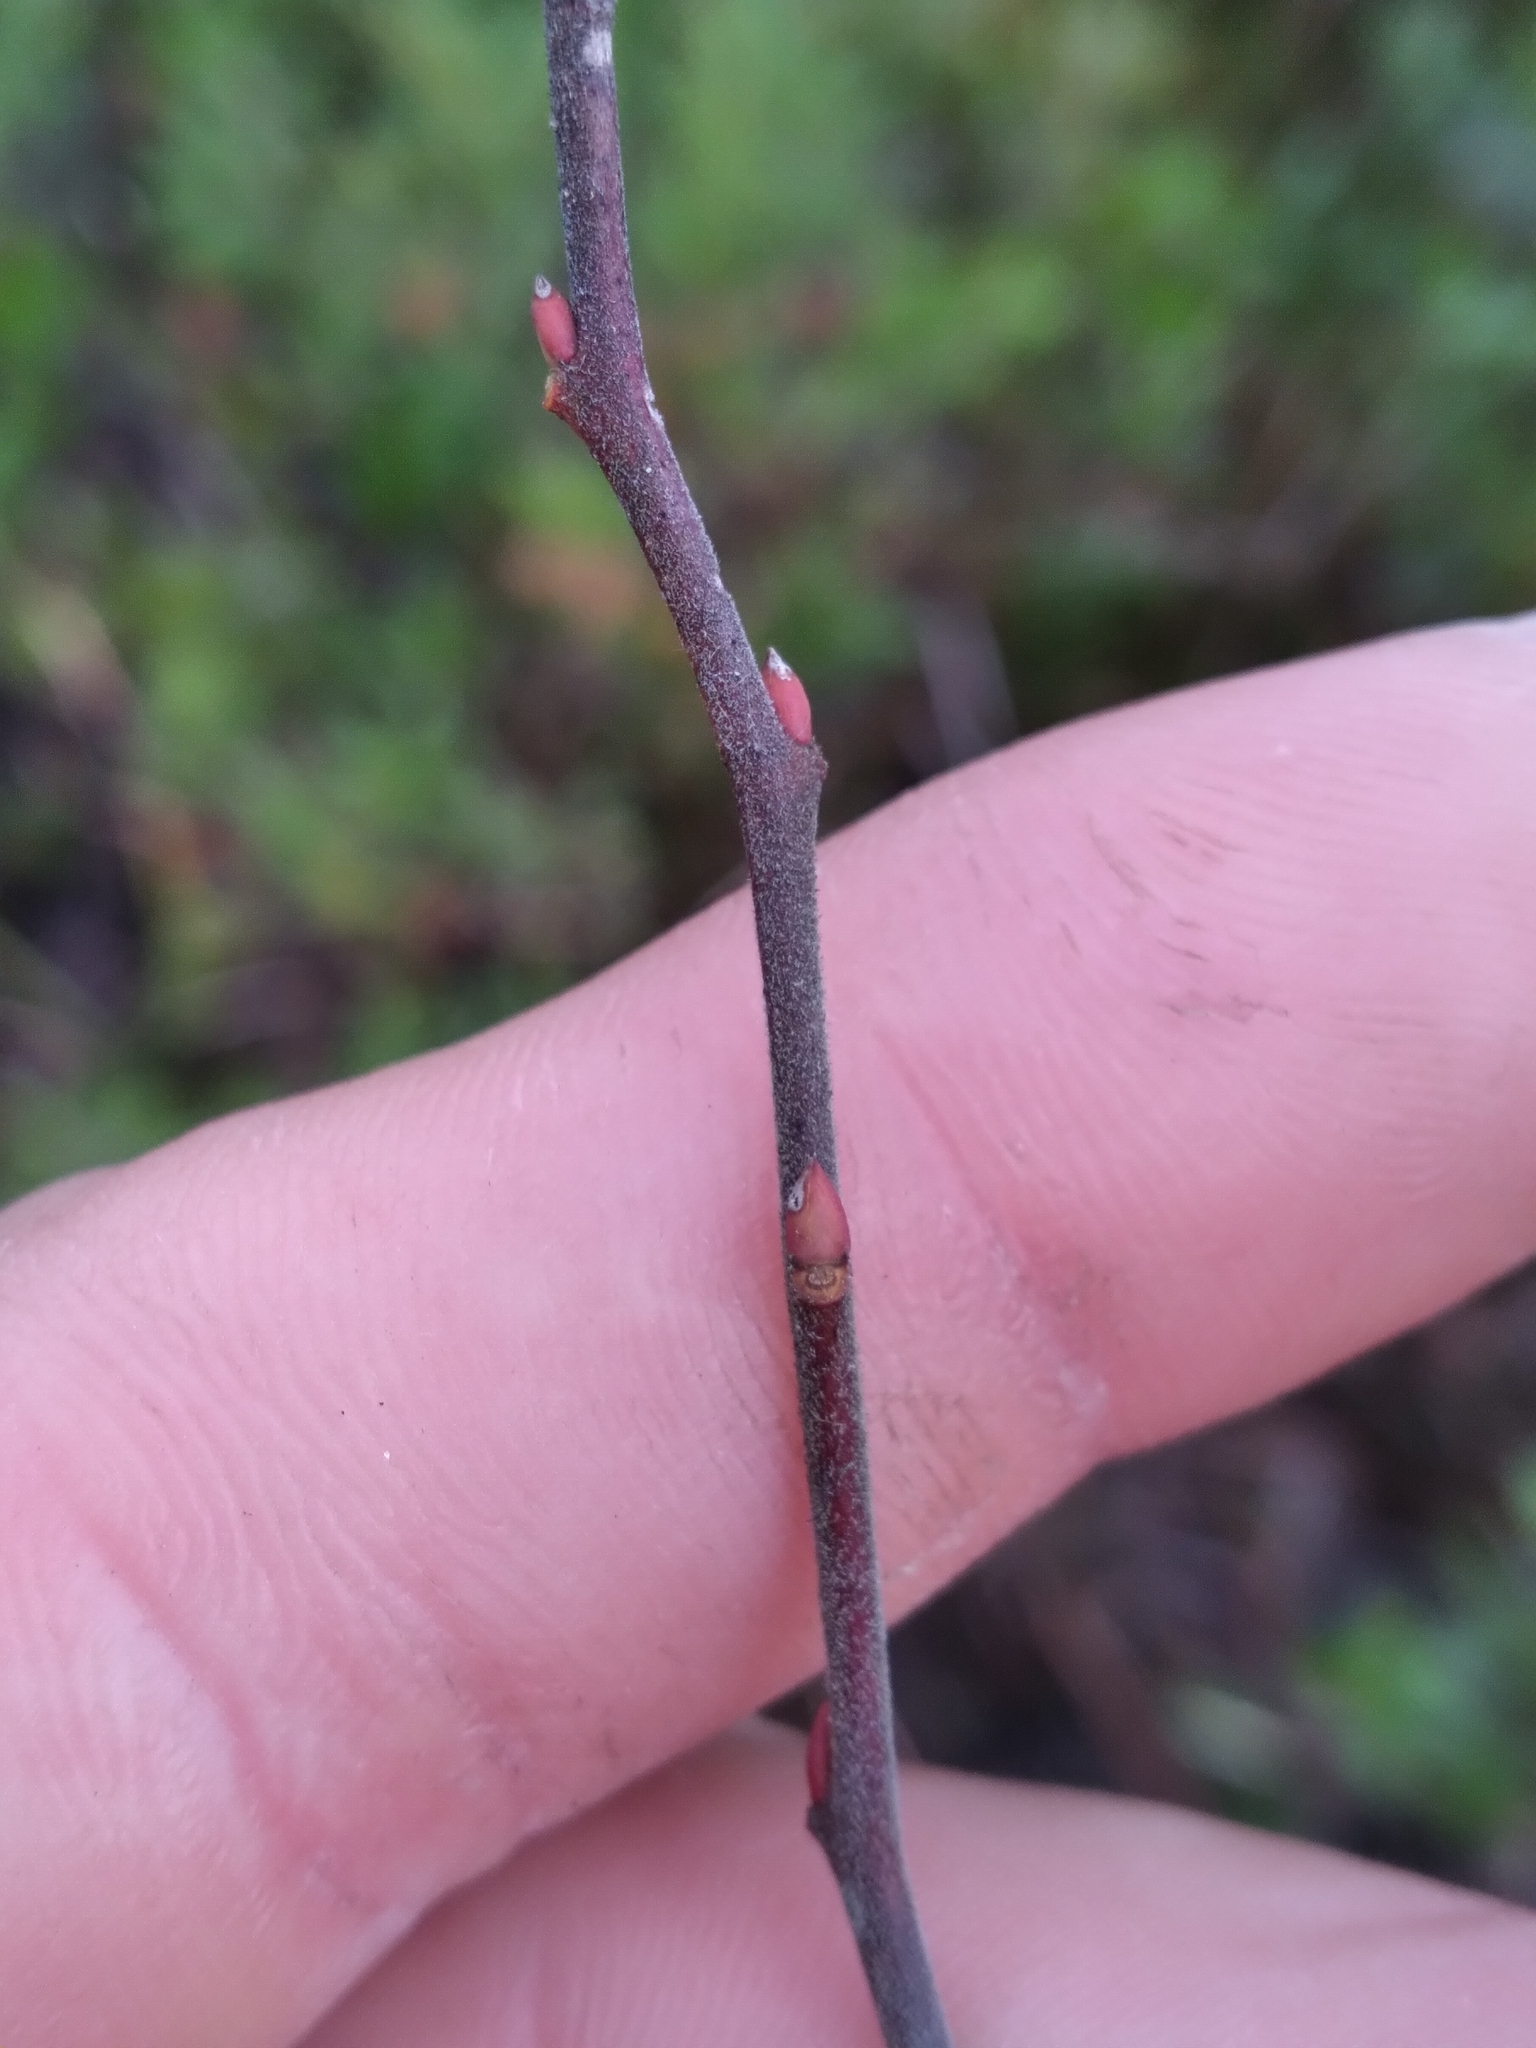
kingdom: Plantae
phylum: Tracheophyta
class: Magnoliopsida
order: Ericales
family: Ericaceae
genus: Lyonia
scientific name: Lyonia ligustrina
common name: Maleberry
